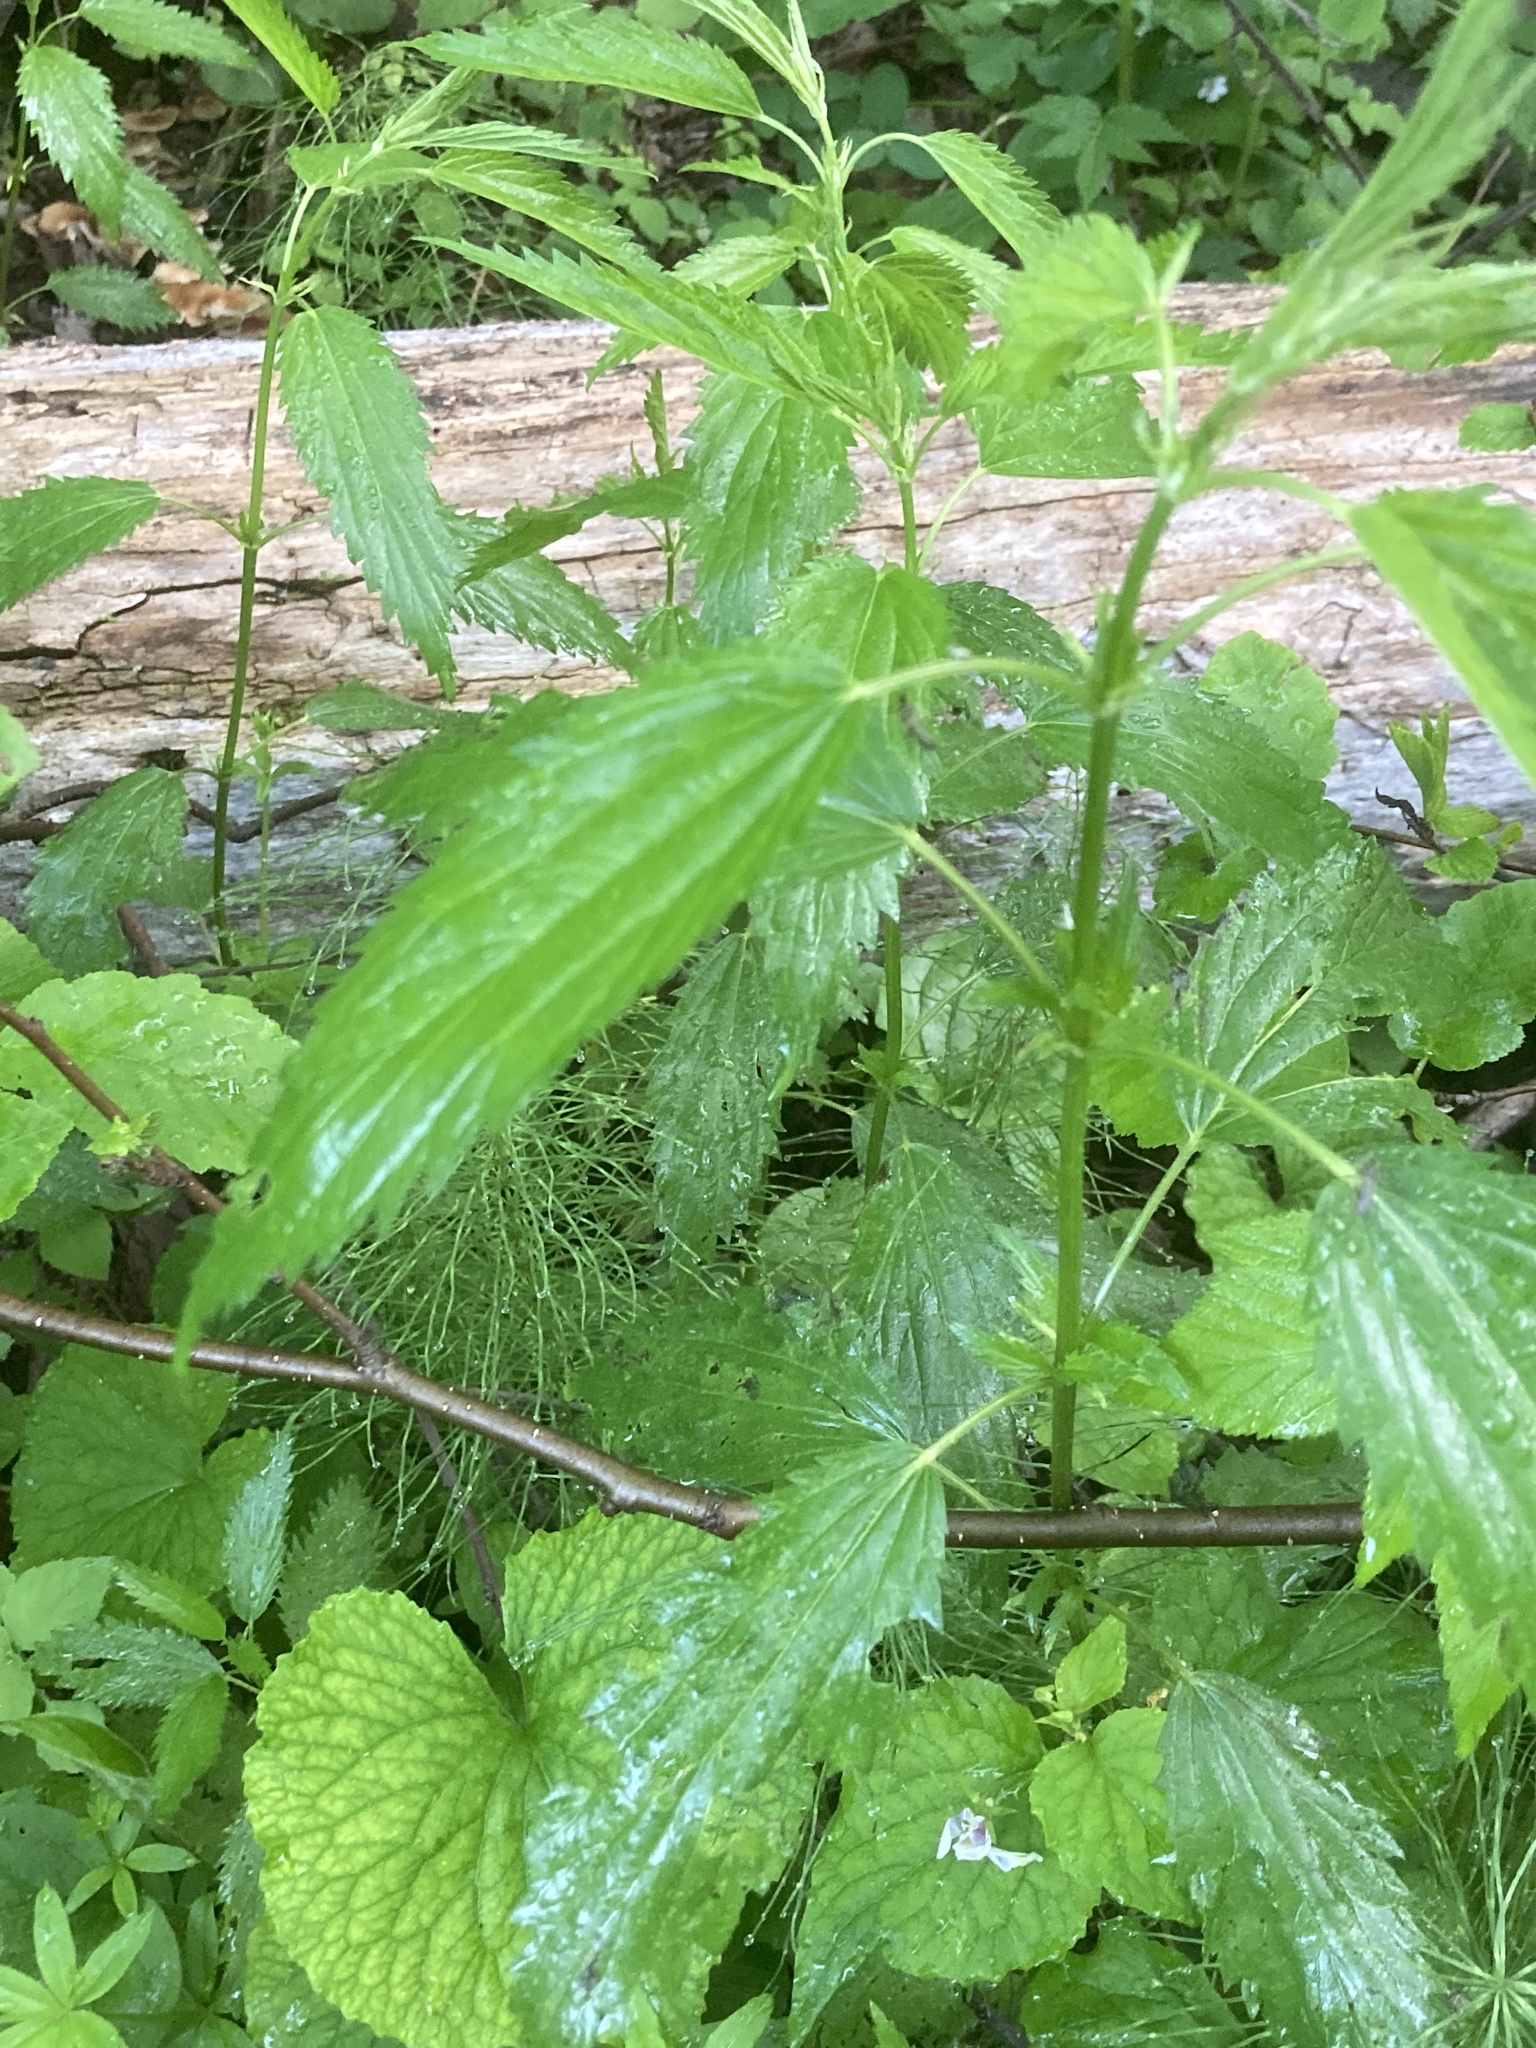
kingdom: Plantae
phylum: Tracheophyta
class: Magnoliopsida
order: Rosales
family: Urticaceae
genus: Urtica
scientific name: Urtica gracilis
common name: Slender stinging nettle
